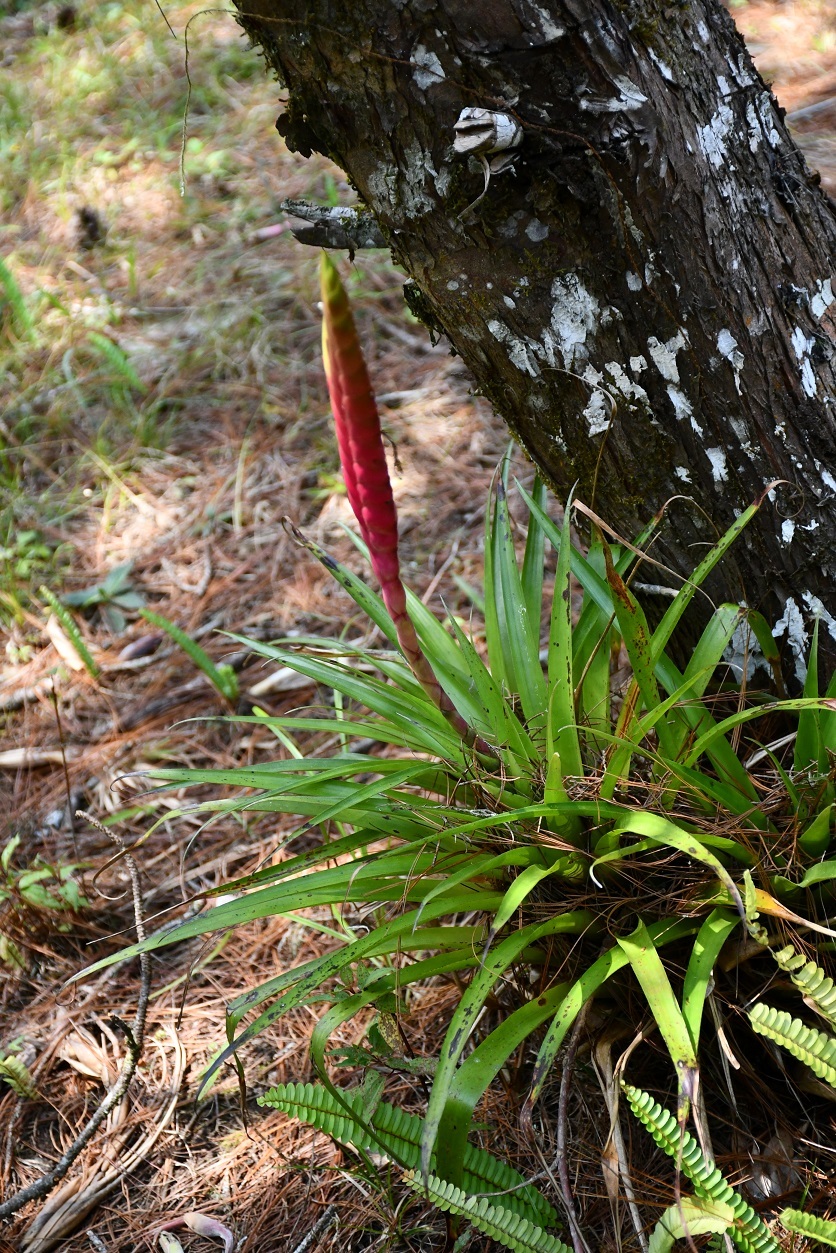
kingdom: Plantae
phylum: Tracheophyta
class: Liliopsida
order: Poales
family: Bromeliaceae
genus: Tillandsia
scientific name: Tillandsia lampropoda
